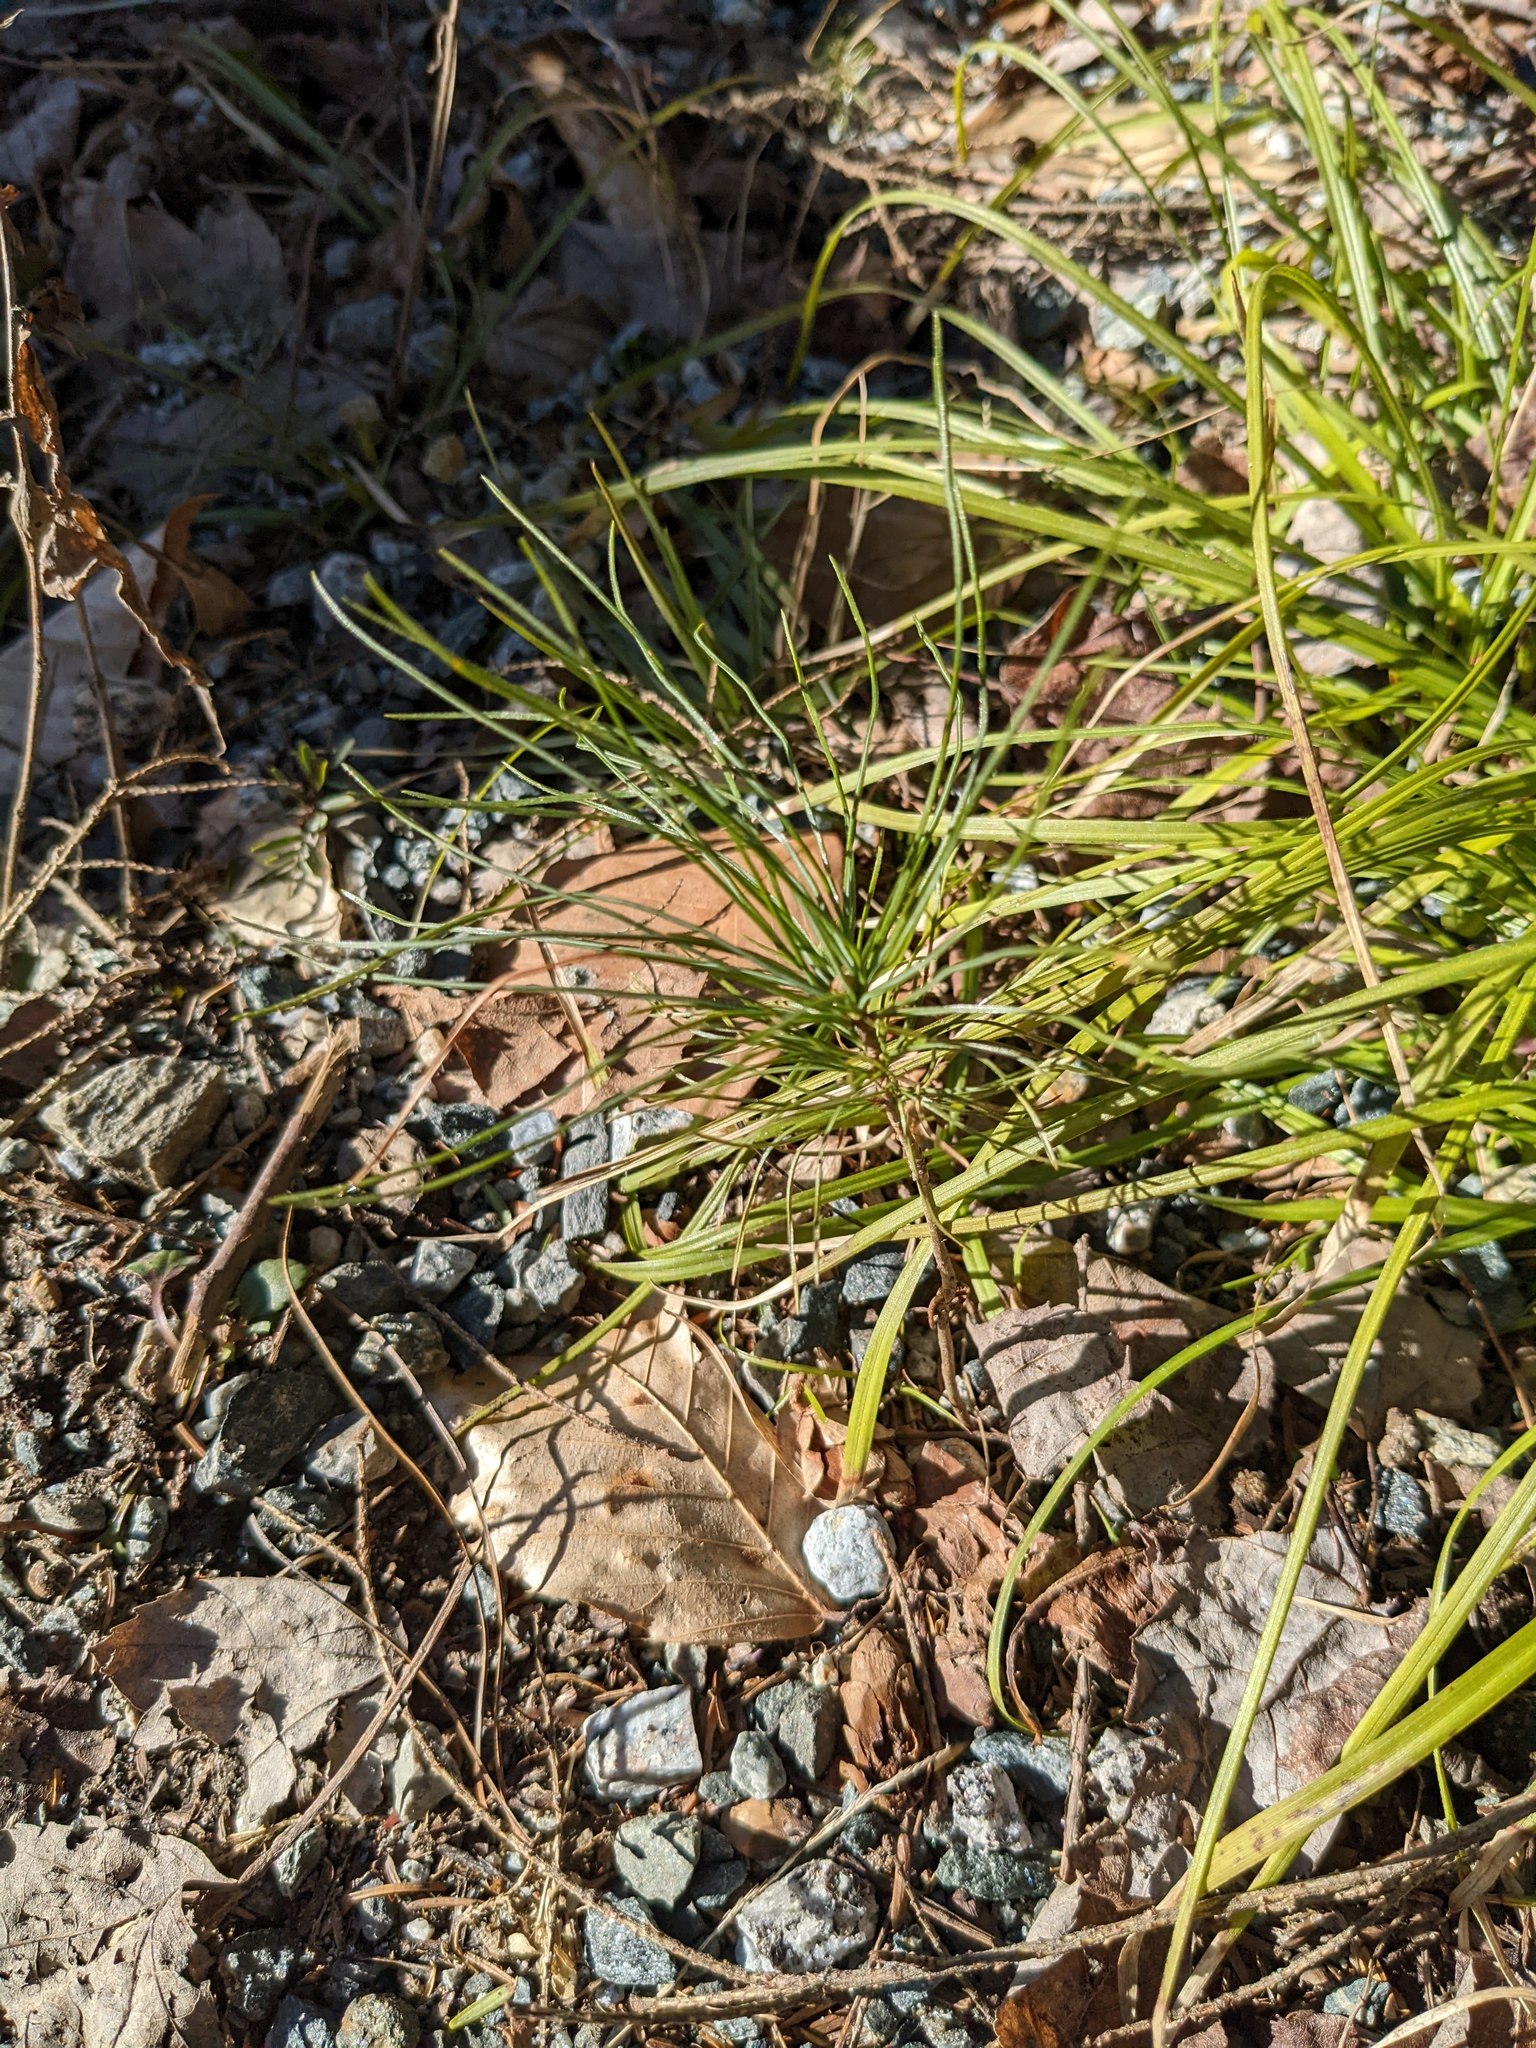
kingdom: Plantae
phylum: Tracheophyta
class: Pinopsida
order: Pinales
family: Pinaceae
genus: Pinus
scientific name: Pinus strobus
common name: Weymouth pine
